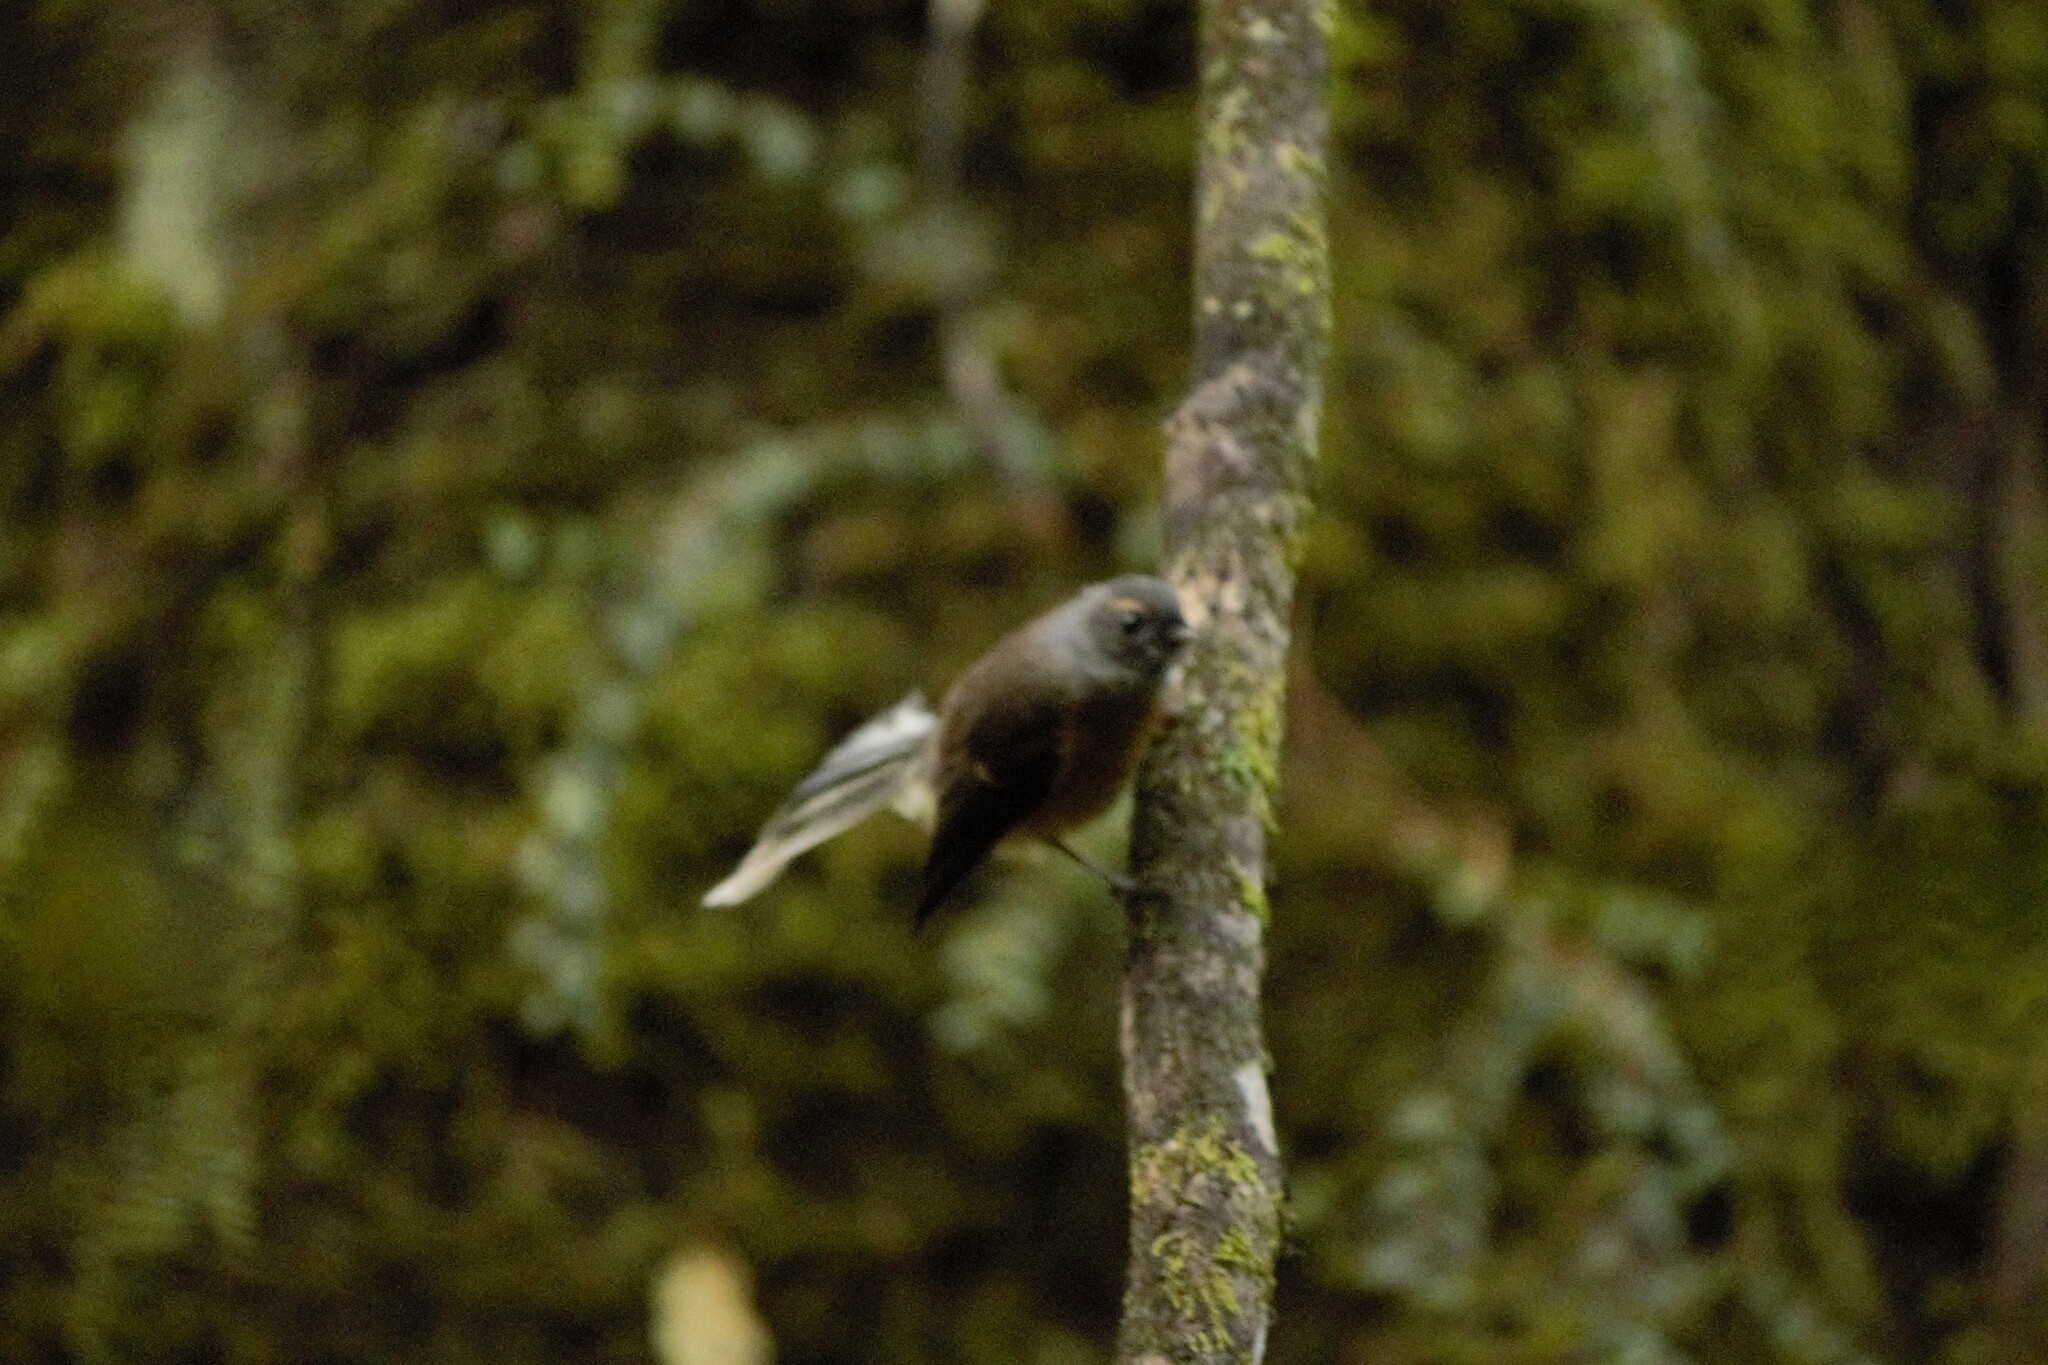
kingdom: Animalia
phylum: Chordata
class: Aves
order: Passeriformes
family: Rhipiduridae
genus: Rhipidura
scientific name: Rhipidura fuliginosa
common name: New zealand fantail
